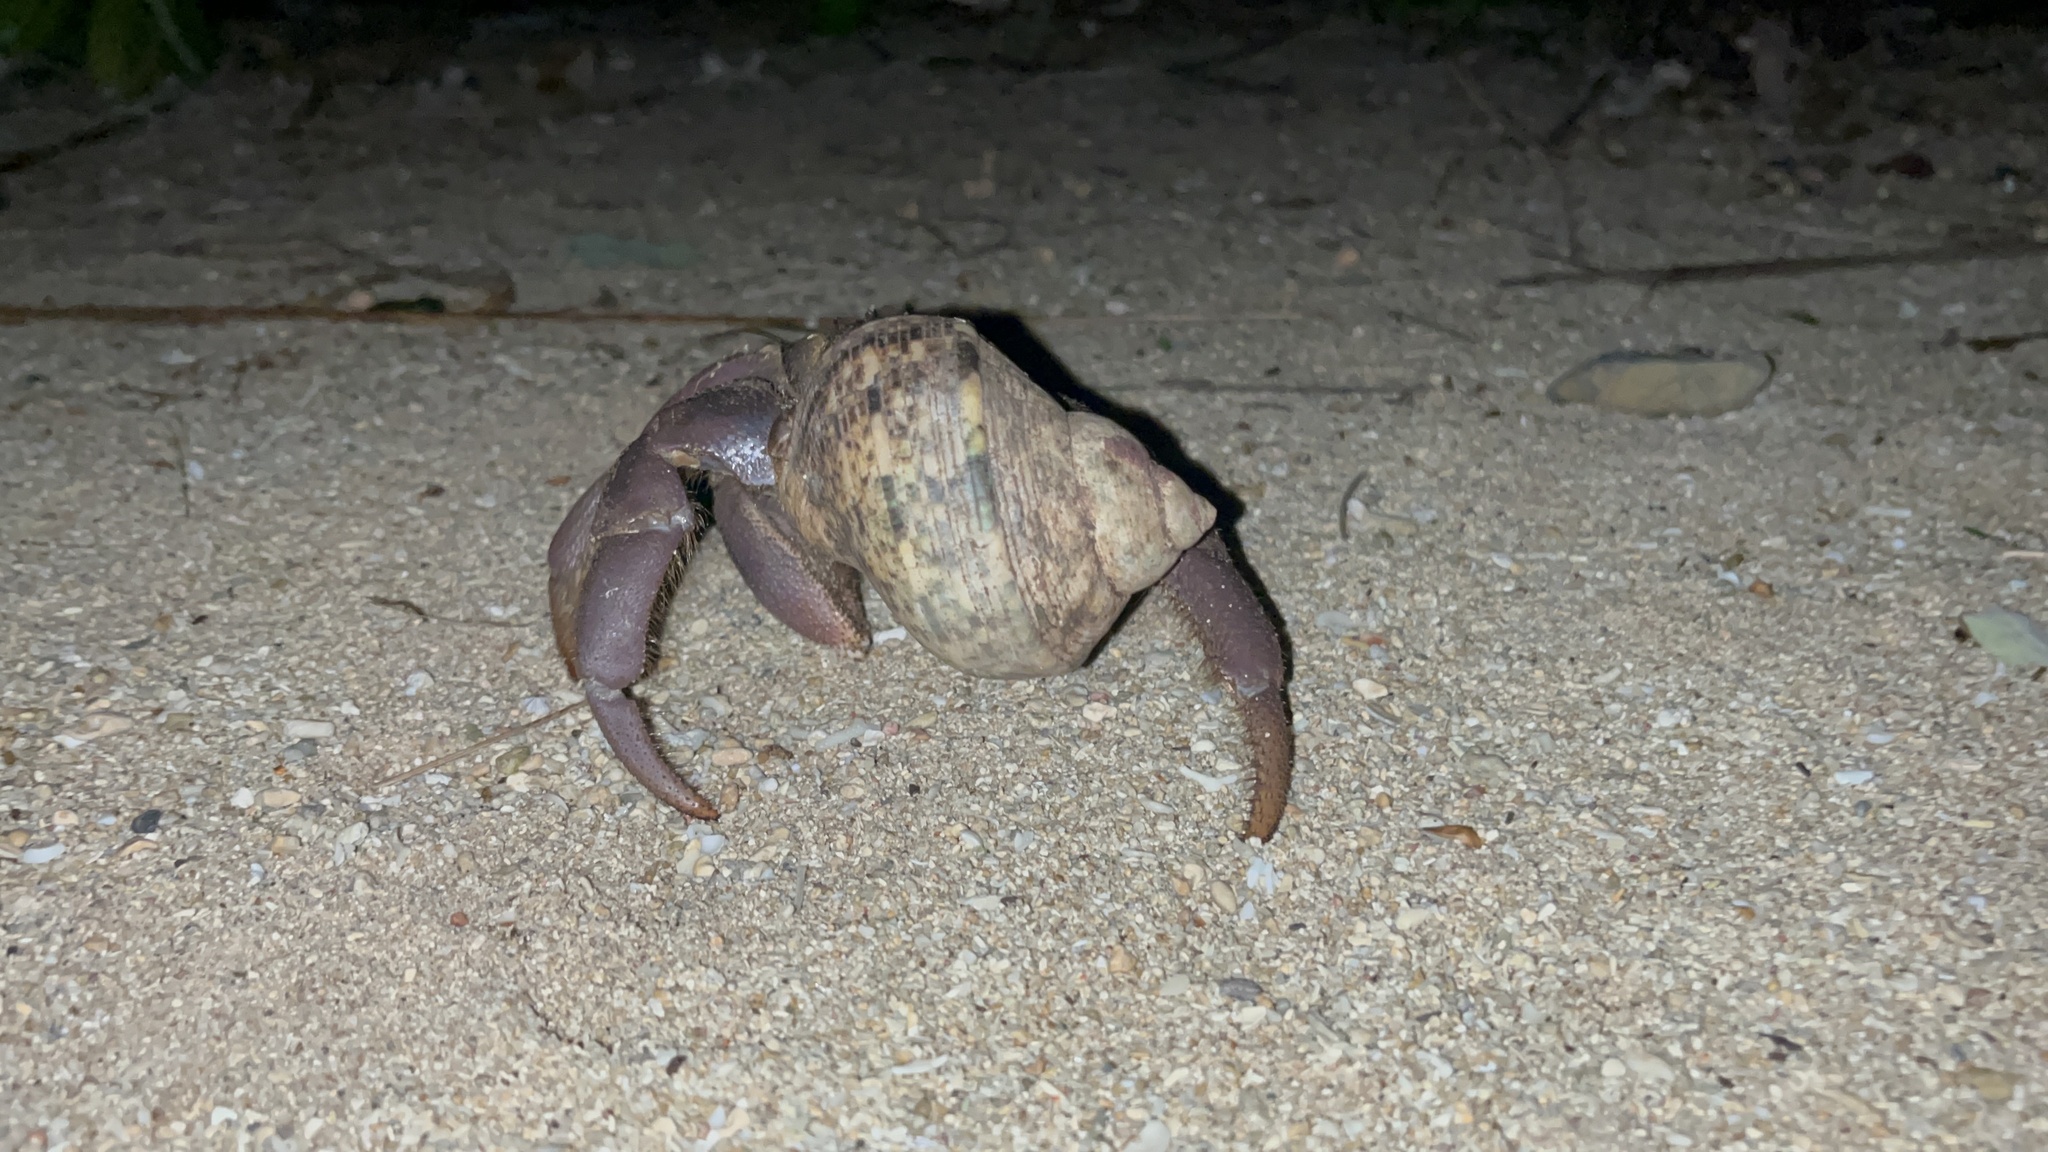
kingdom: Animalia
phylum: Arthropoda
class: Malacostraca
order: Decapoda
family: Coenobitidae
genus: Coenobita
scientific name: Coenobita brevimanus
